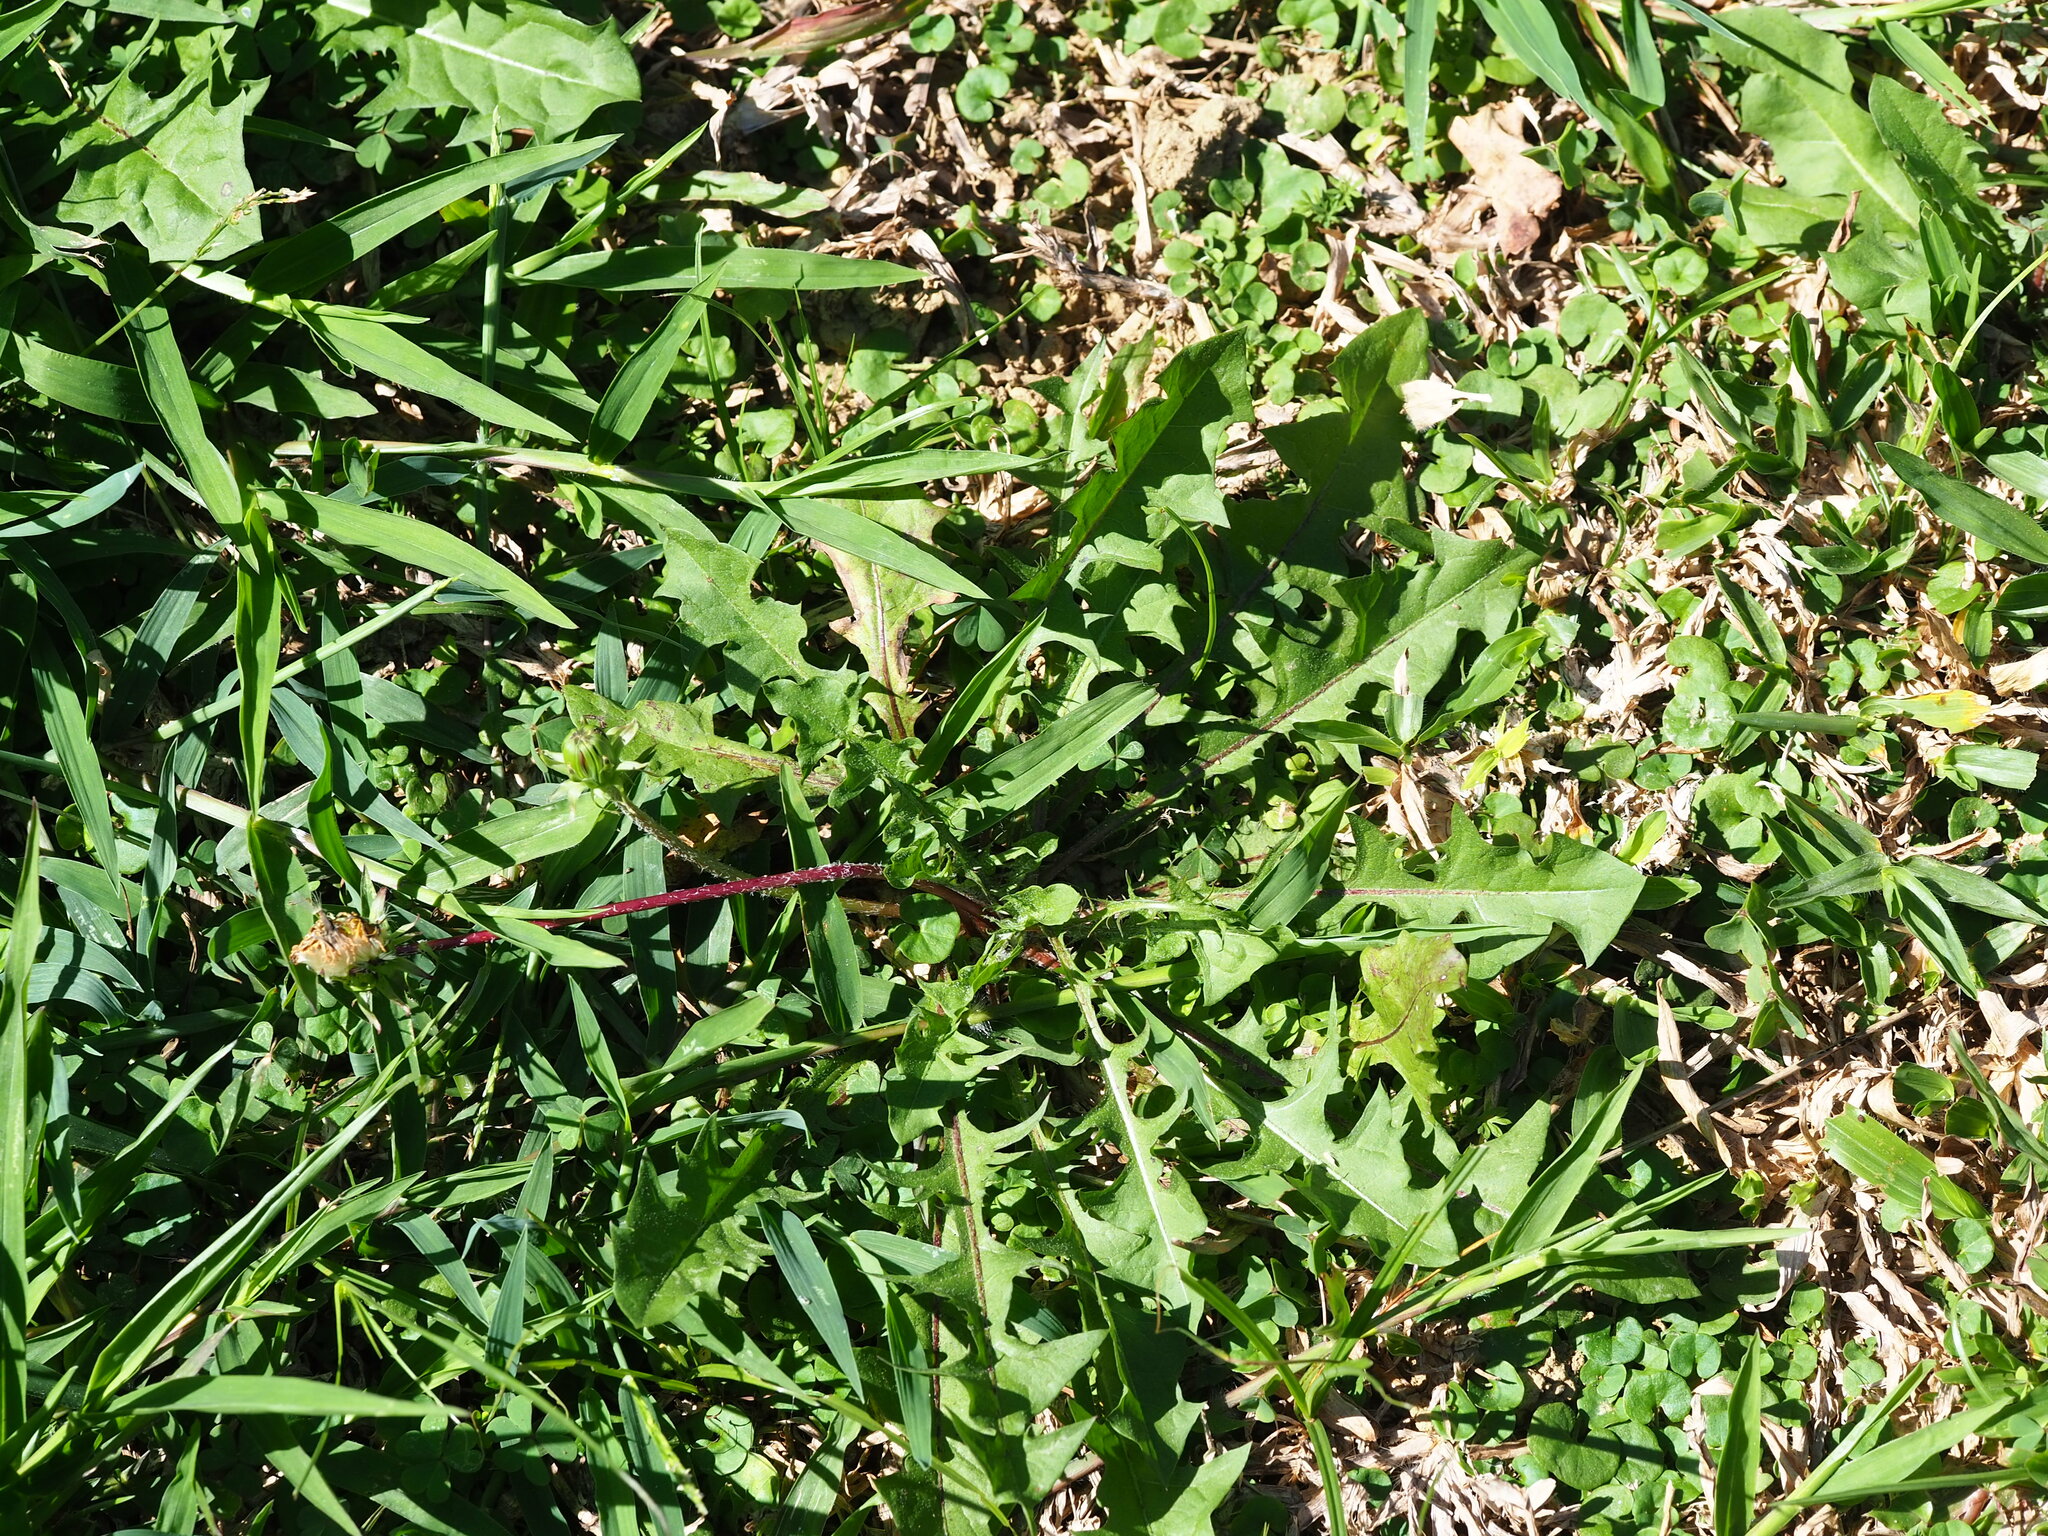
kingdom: Plantae
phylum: Tracheophyta
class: Magnoliopsida
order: Asterales
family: Asteraceae
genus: Taraxacum
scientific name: Taraxacum officinale
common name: Common dandelion
